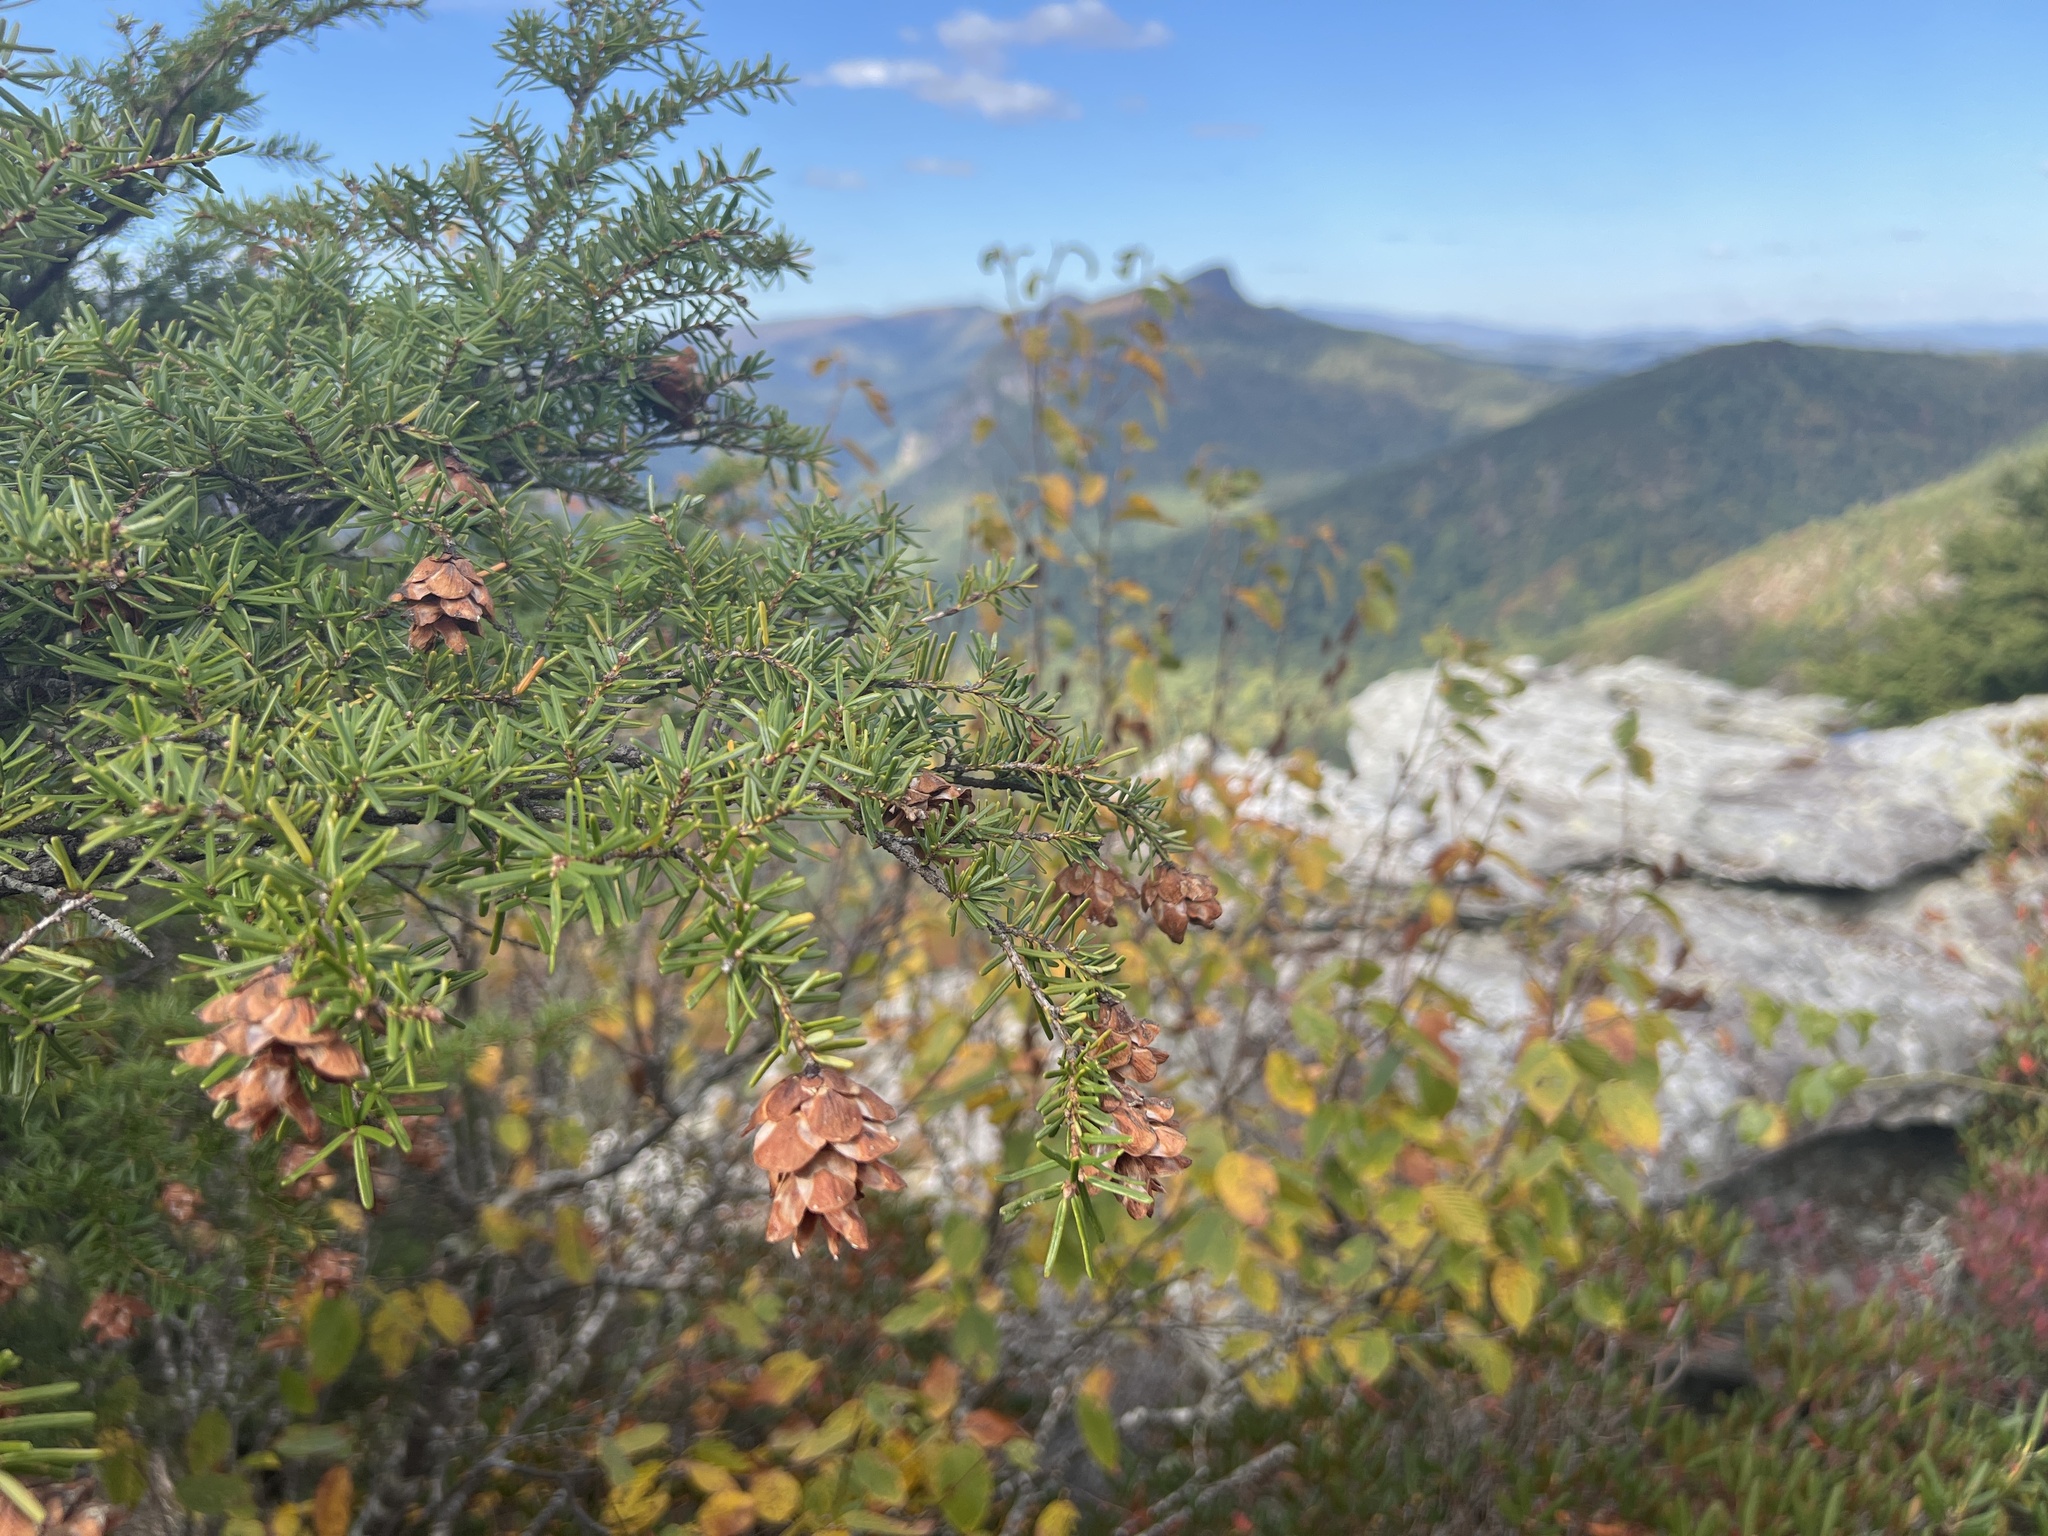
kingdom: Plantae
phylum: Tracheophyta
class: Pinopsida
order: Pinales
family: Pinaceae
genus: Tsuga
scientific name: Tsuga caroliniana
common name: Carolina hemlock
